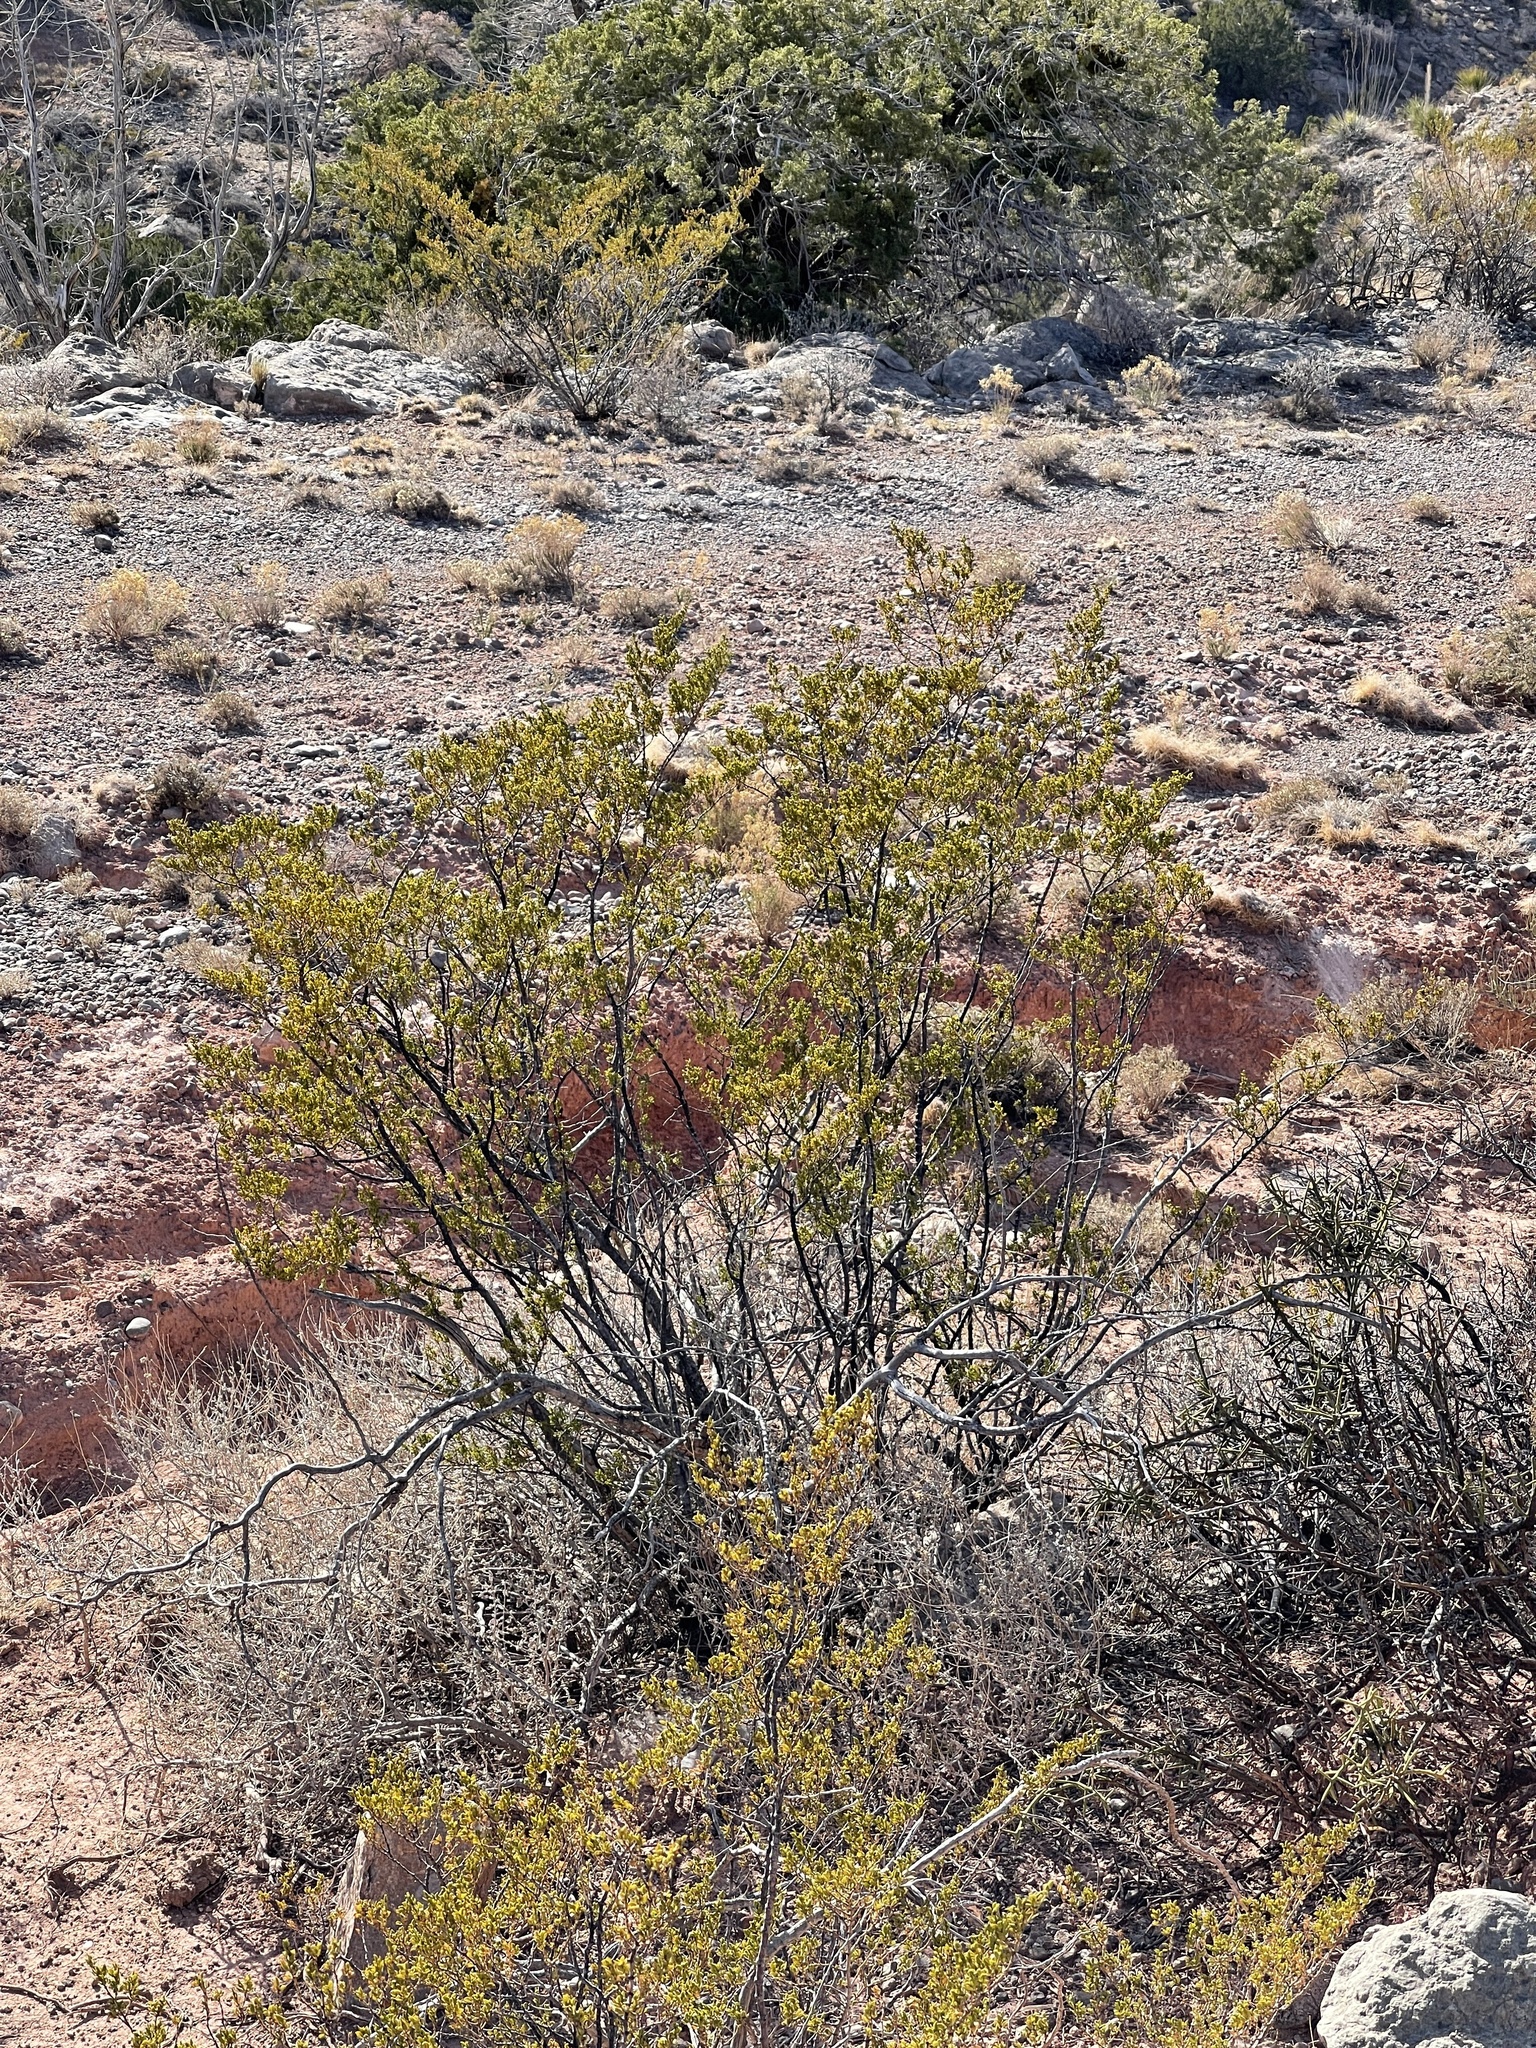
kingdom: Plantae
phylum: Tracheophyta
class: Magnoliopsida
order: Zygophyllales
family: Zygophyllaceae
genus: Larrea
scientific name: Larrea tridentata
